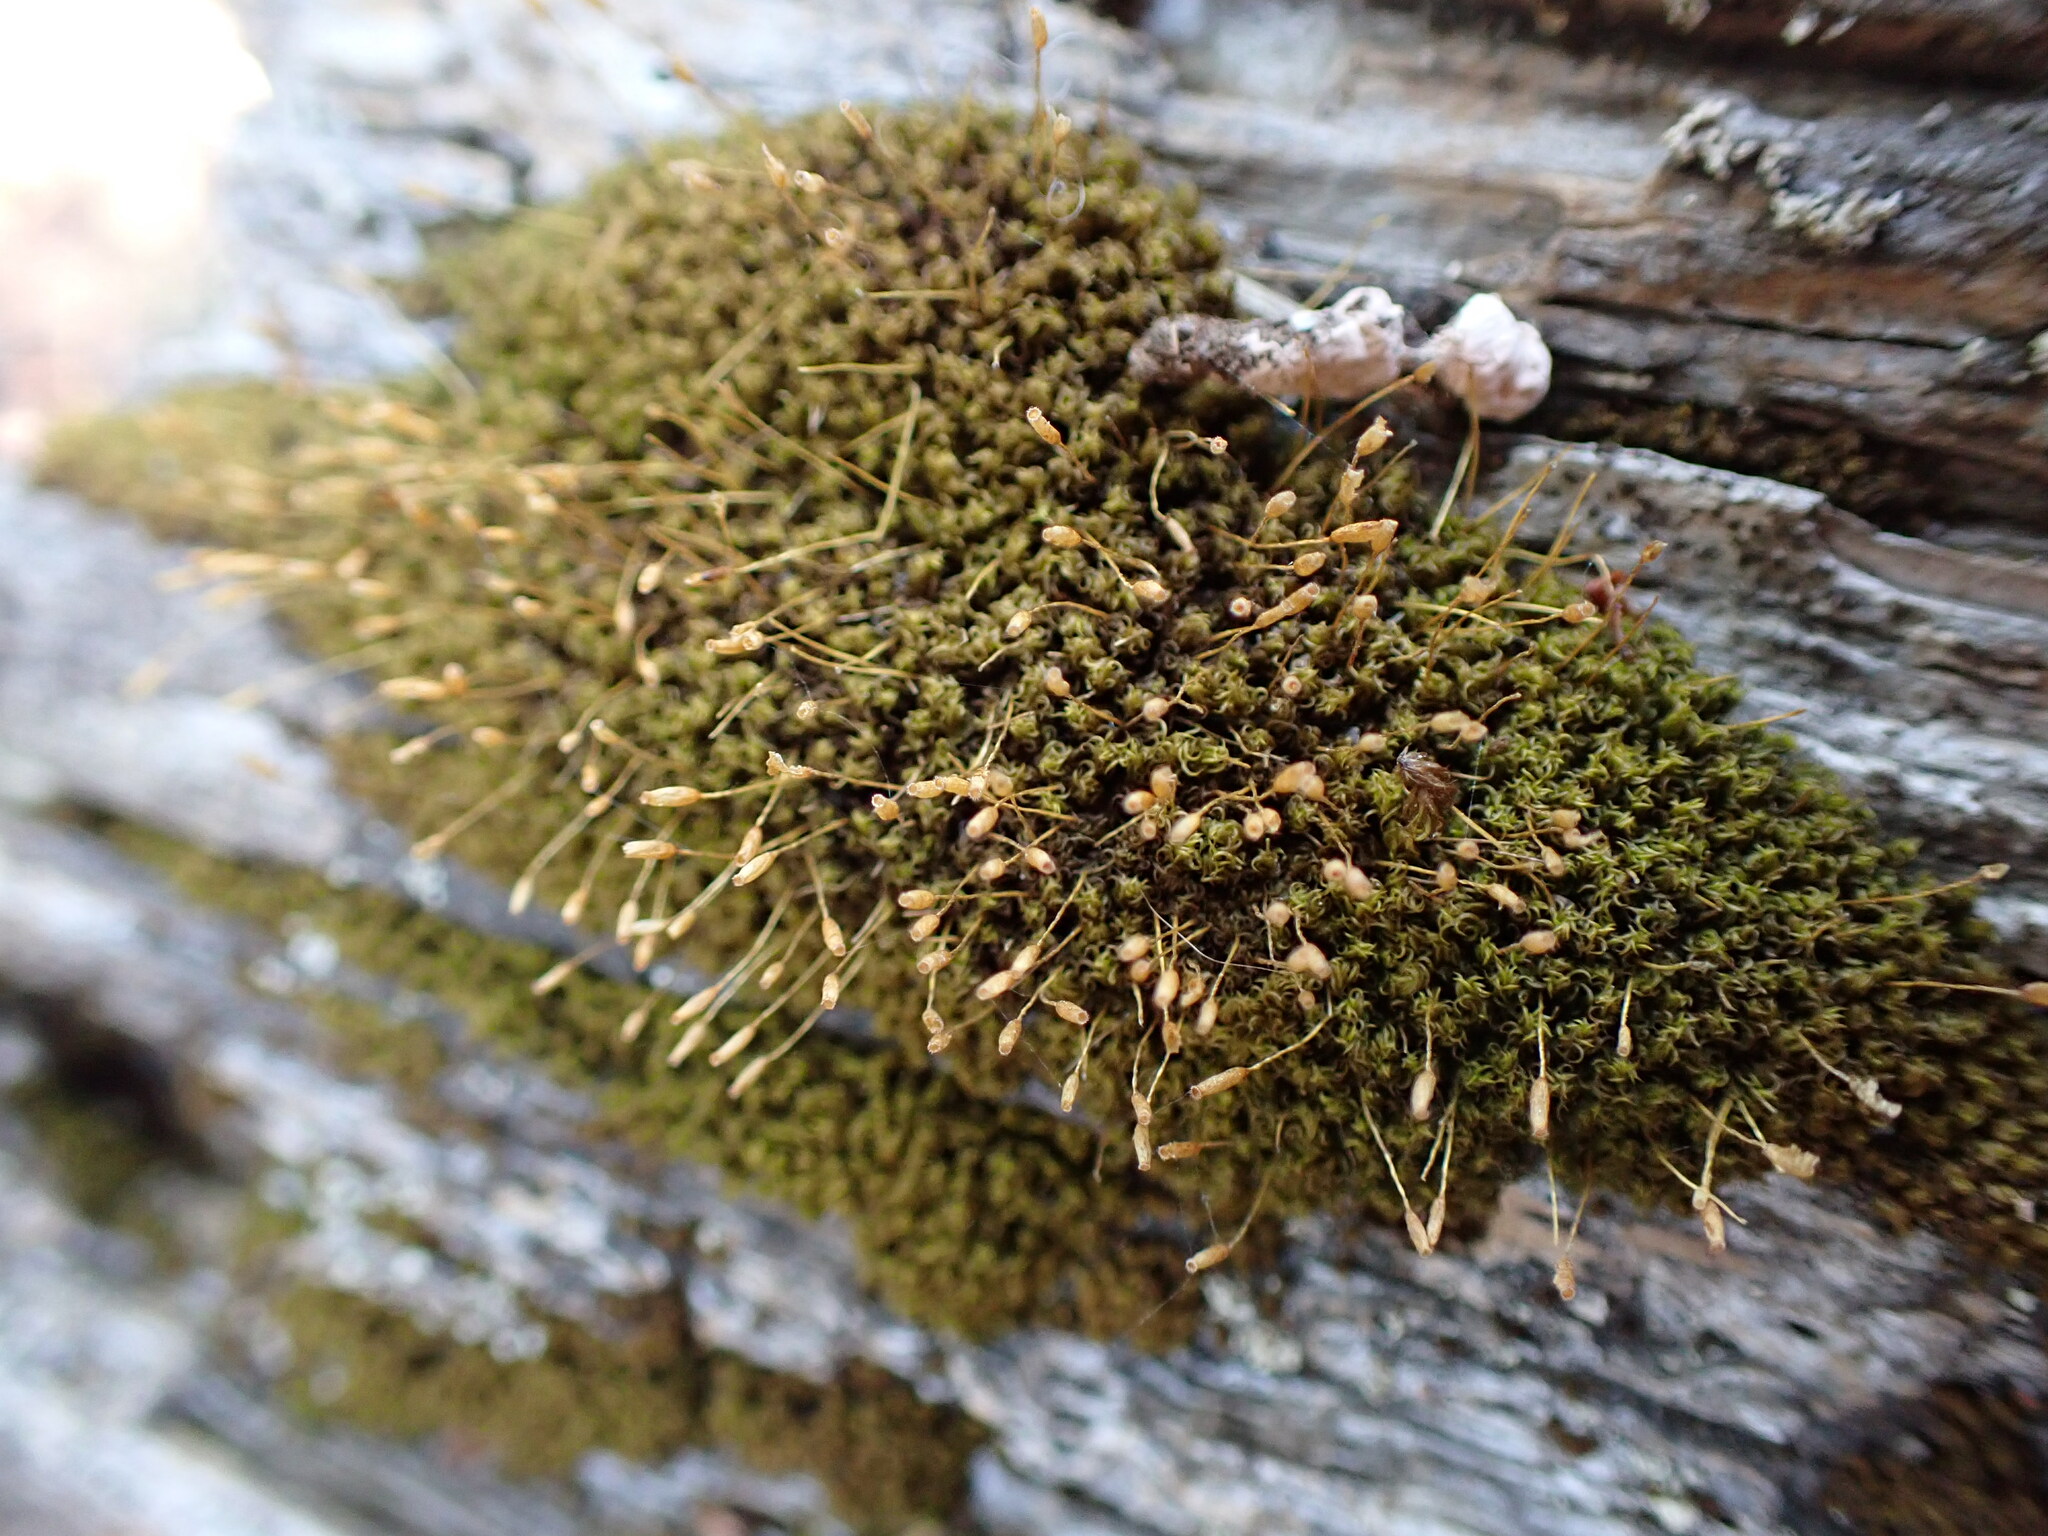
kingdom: Plantae
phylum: Bryophyta
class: Bryopsida
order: Dicranales
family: Rhabdoweisiaceae
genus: Dicranoweisia
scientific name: Dicranoweisia cirrata
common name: Common pincushion
